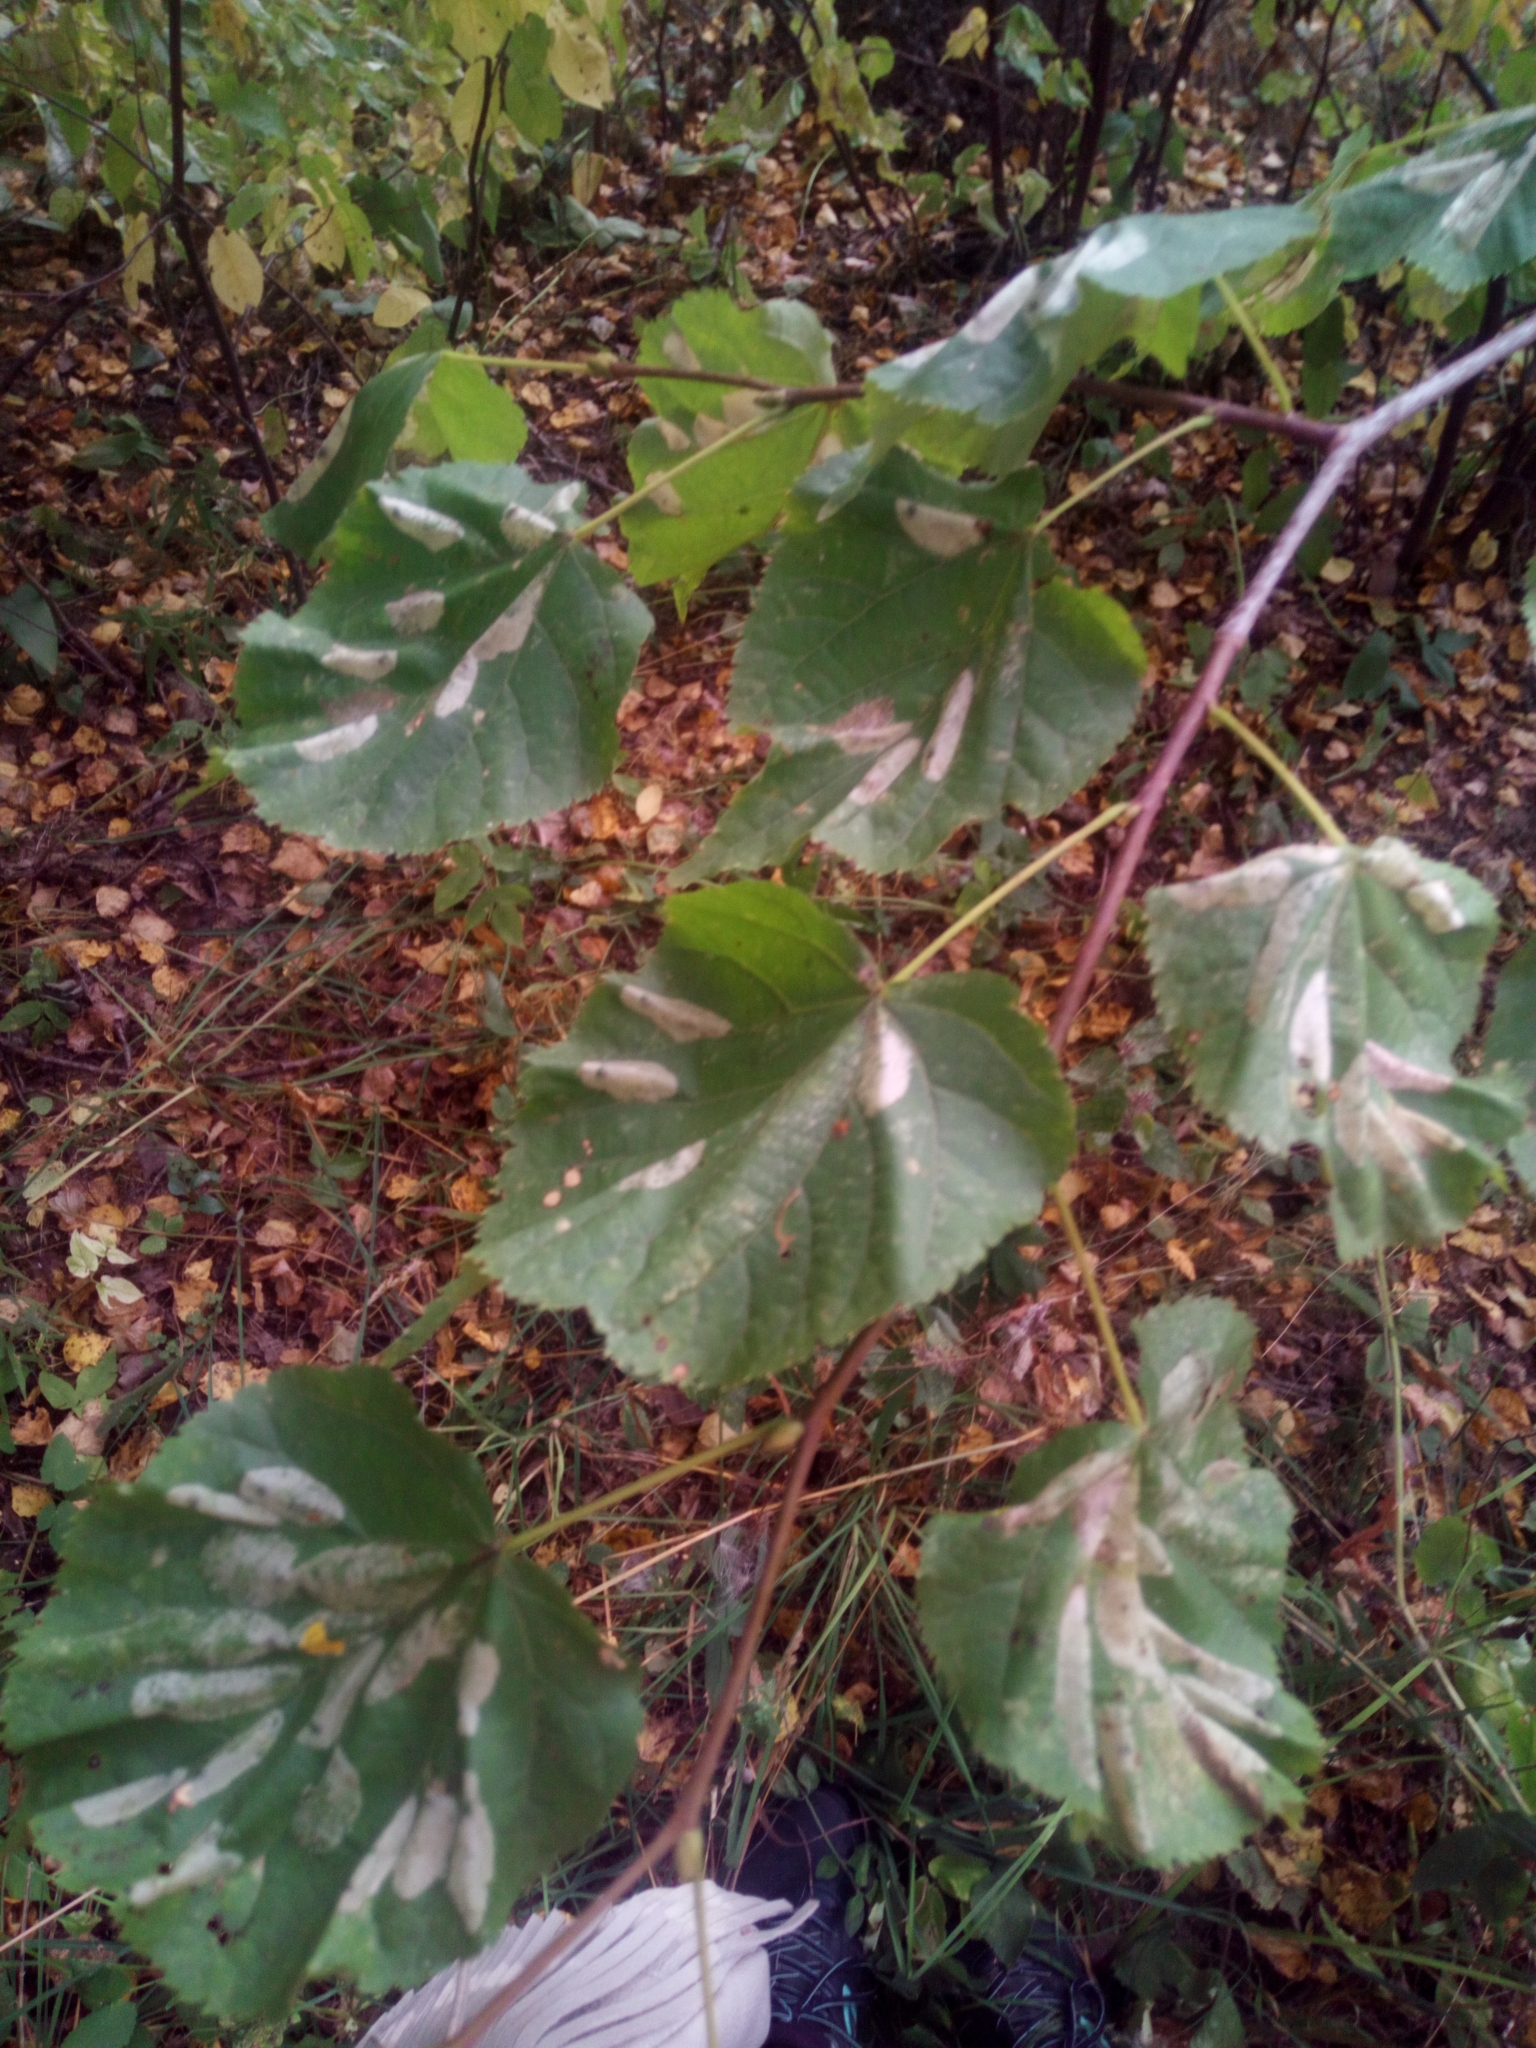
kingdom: Plantae
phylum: Tracheophyta
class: Magnoliopsida
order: Malvales
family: Malvaceae
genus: Tilia
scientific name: Tilia cordata
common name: Small-leaved lime
